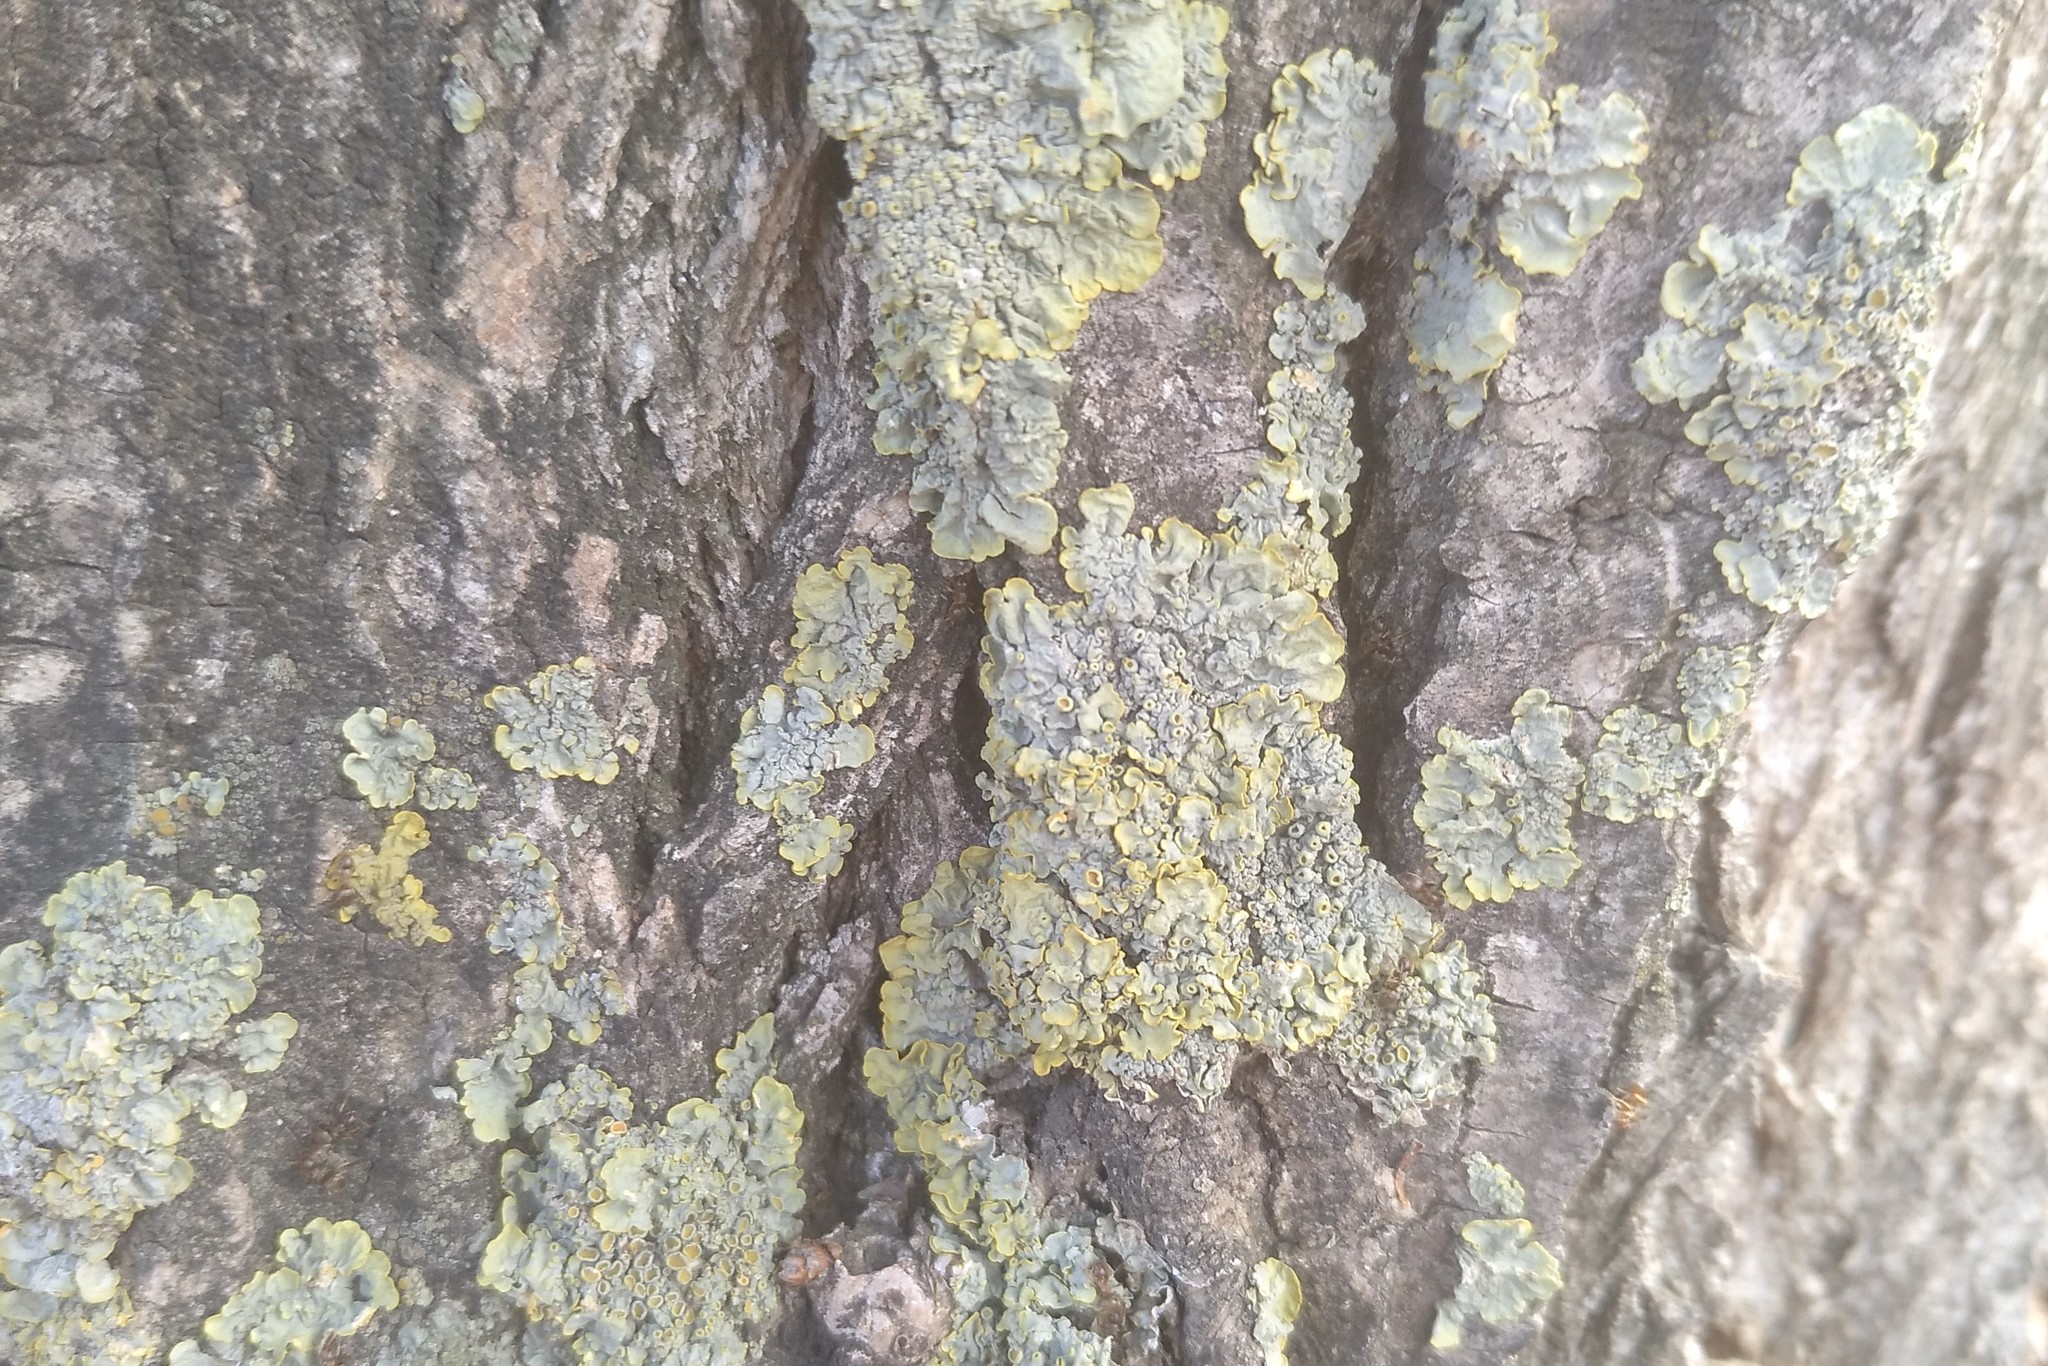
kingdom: Fungi
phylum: Ascomycota
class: Lecanoromycetes
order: Teloschistales
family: Teloschistaceae
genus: Xanthoria
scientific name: Xanthoria parietina
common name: Common orange lichen
